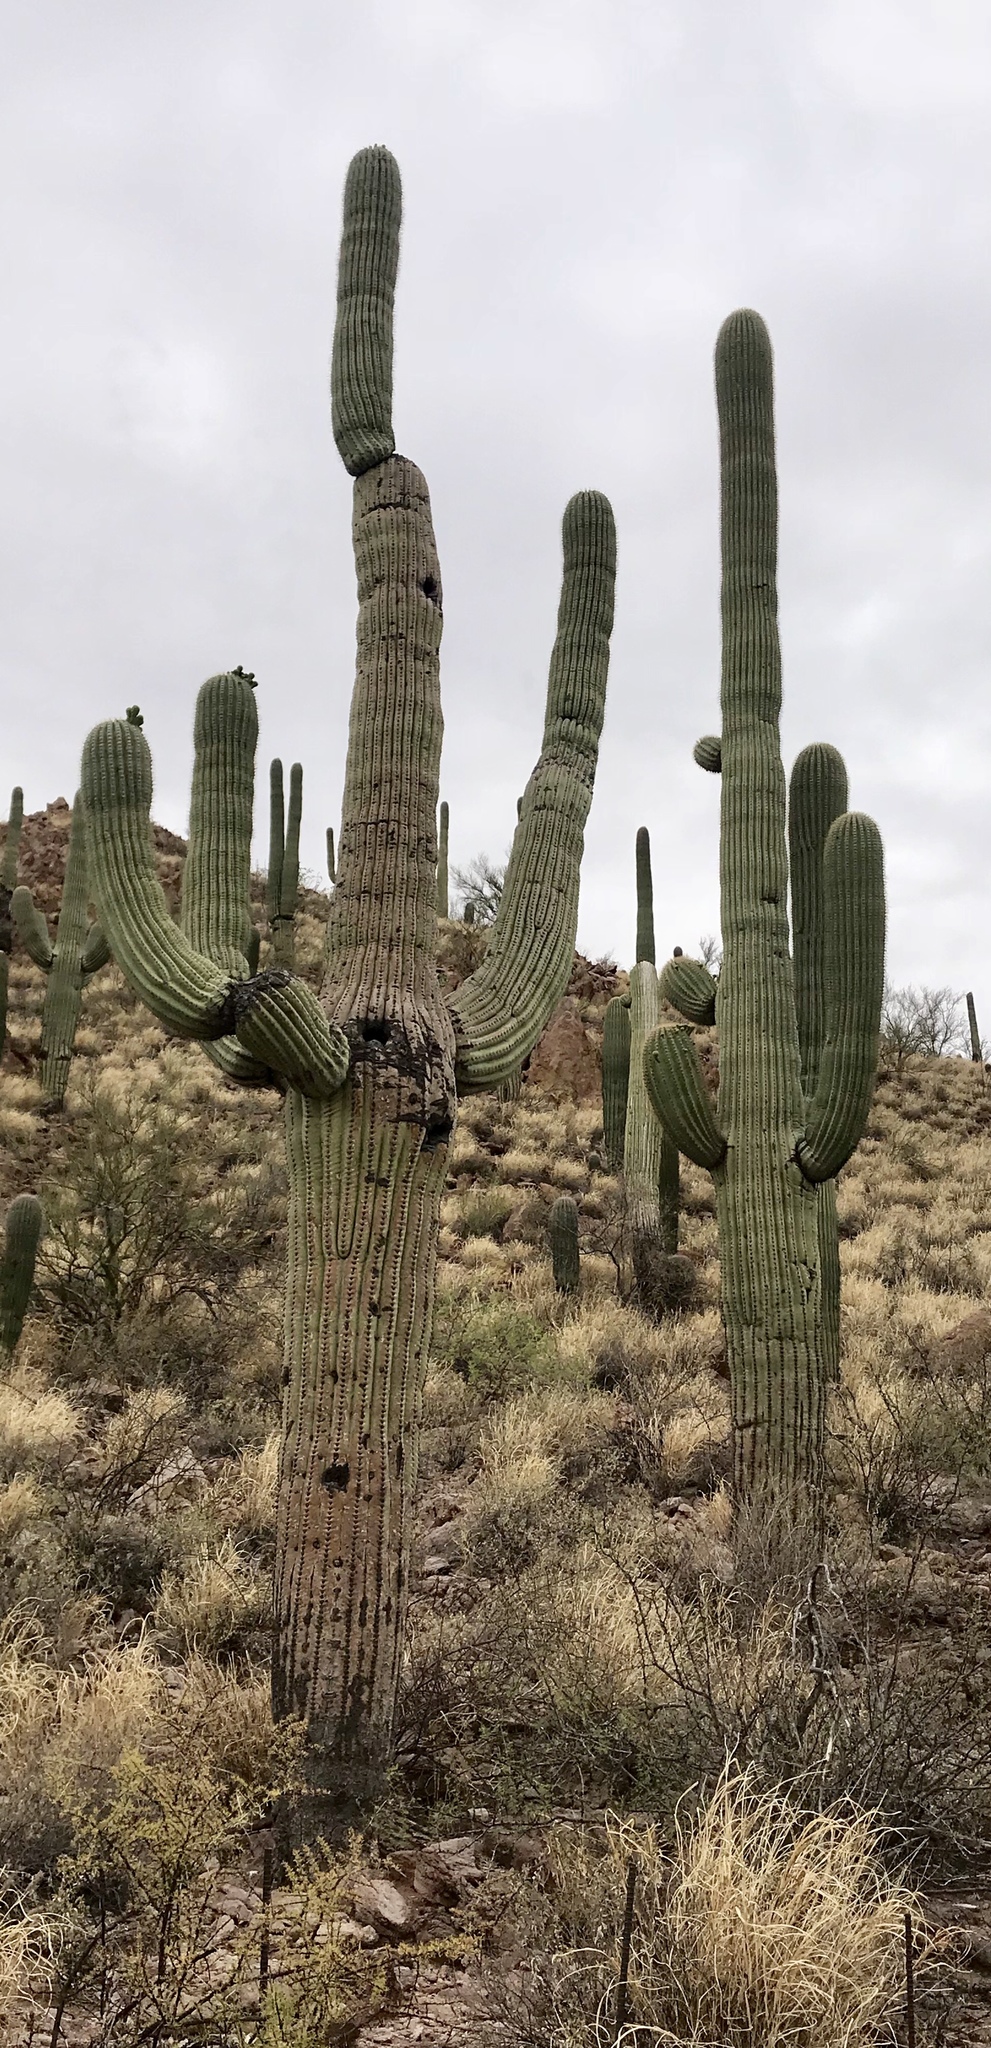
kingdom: Plantae
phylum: Tracheophyta
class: Magnoliopsida
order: Caryophyllales
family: Cactaceae
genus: Carnegiea
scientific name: Carnegiea gigantea
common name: Saguaro
